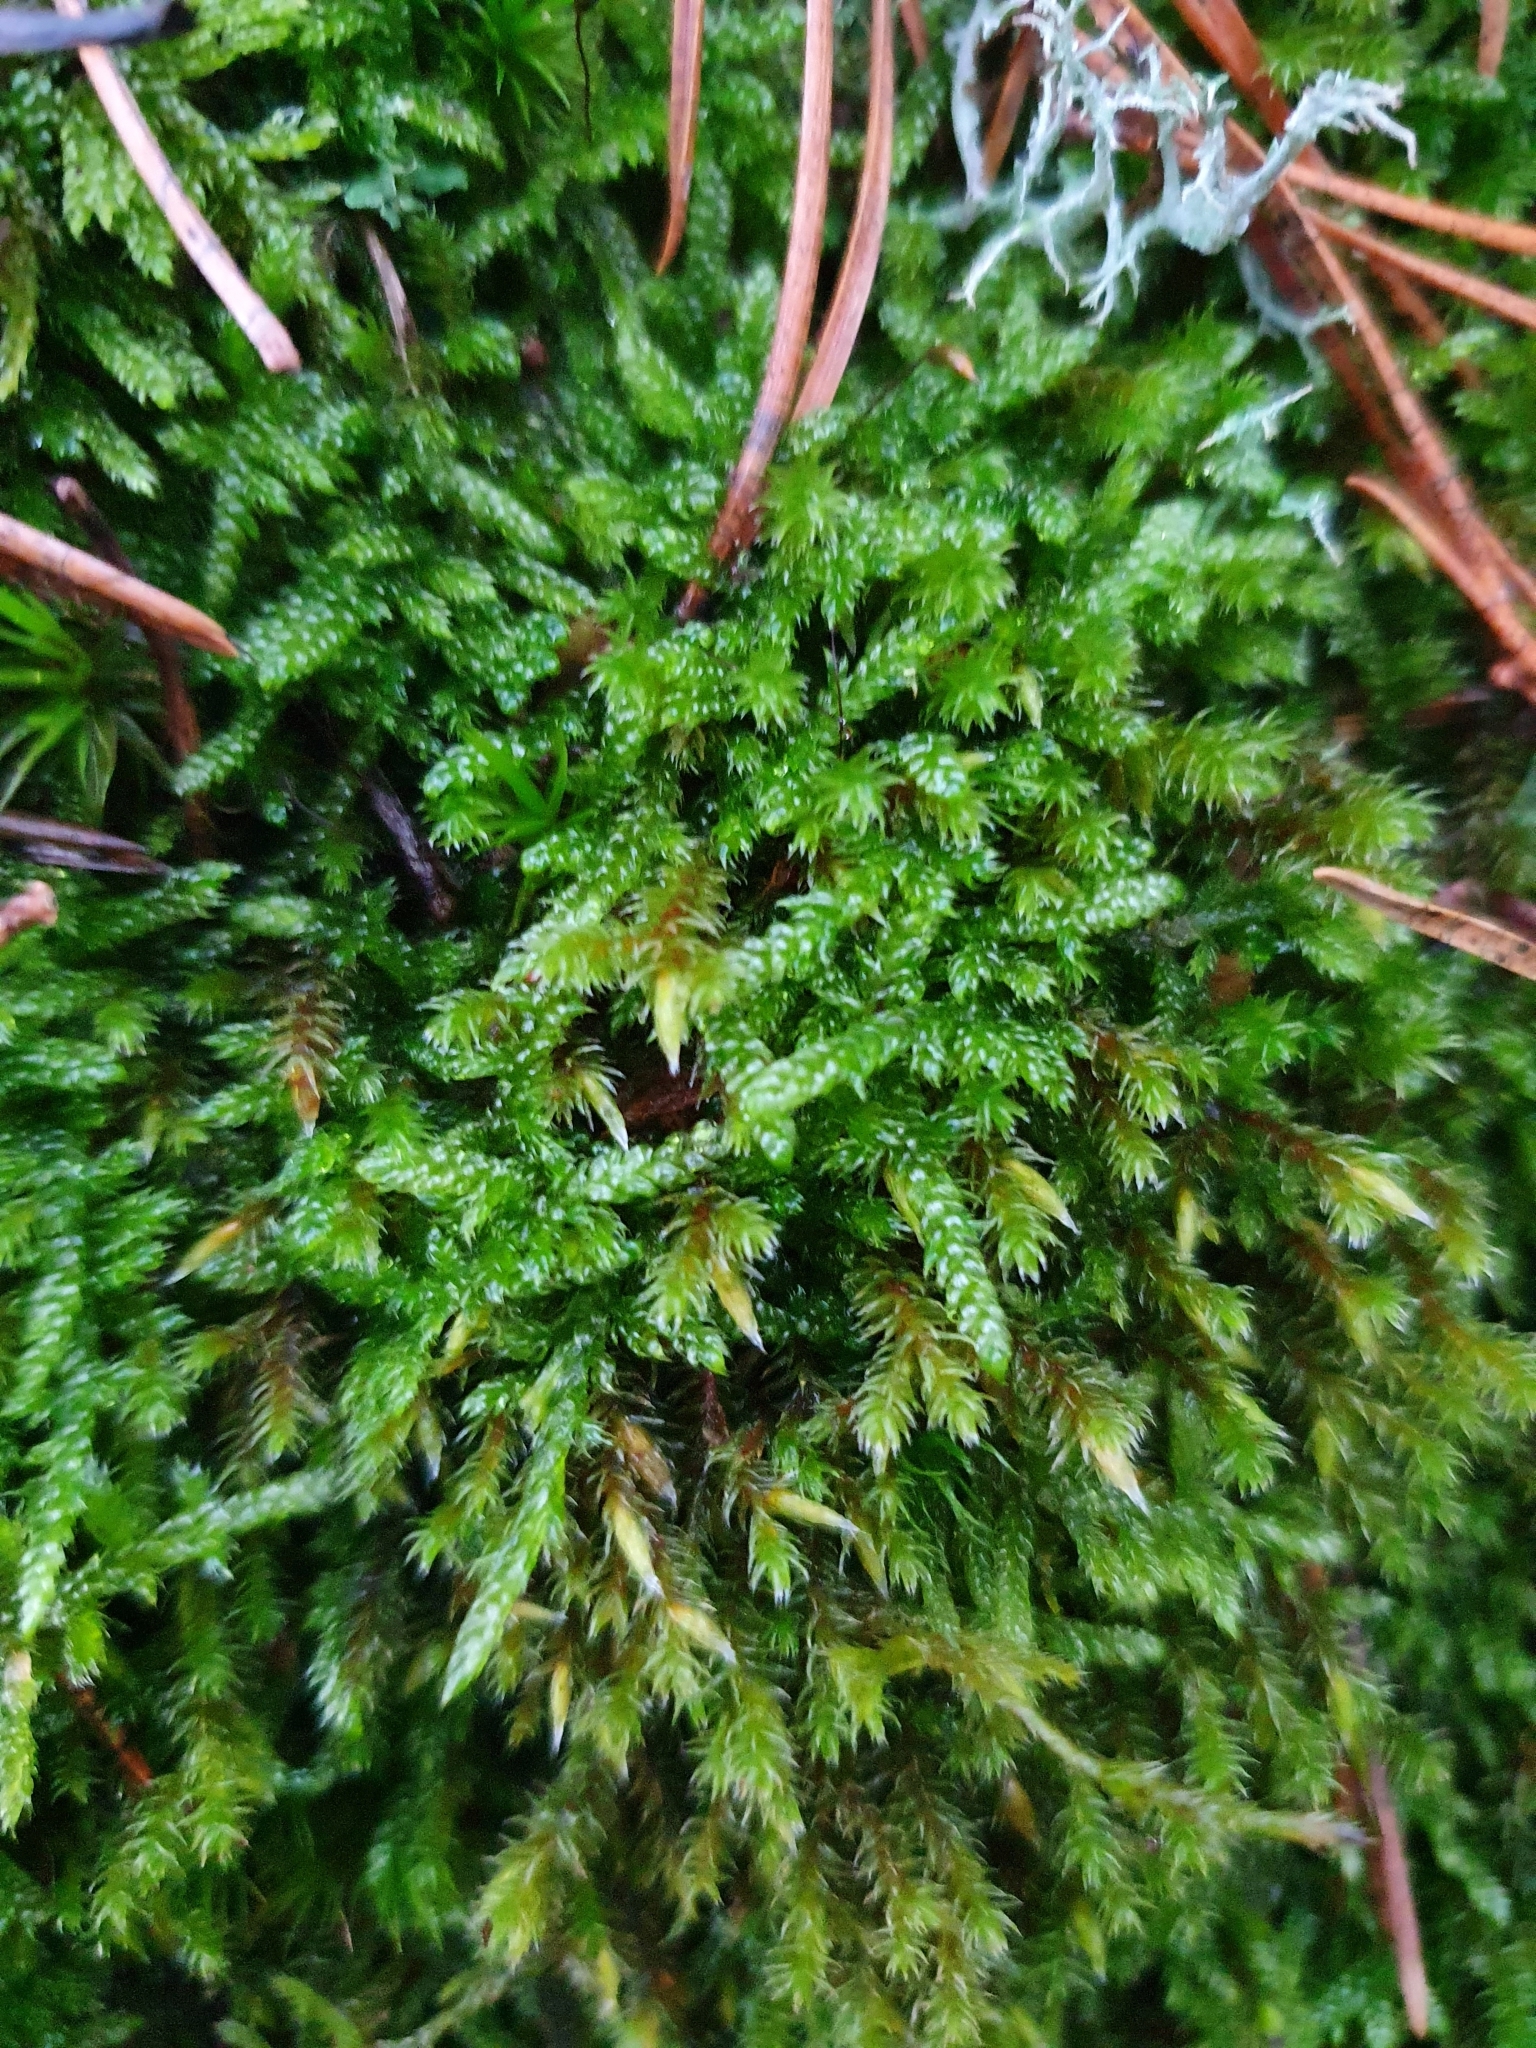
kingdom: Plantae
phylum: Bryophyta
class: Bryopsida
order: Hypnales
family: Hypnaceae
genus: Hypnum
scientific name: Hypnum cupressiforme
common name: Cypress-leaved plait-moss
